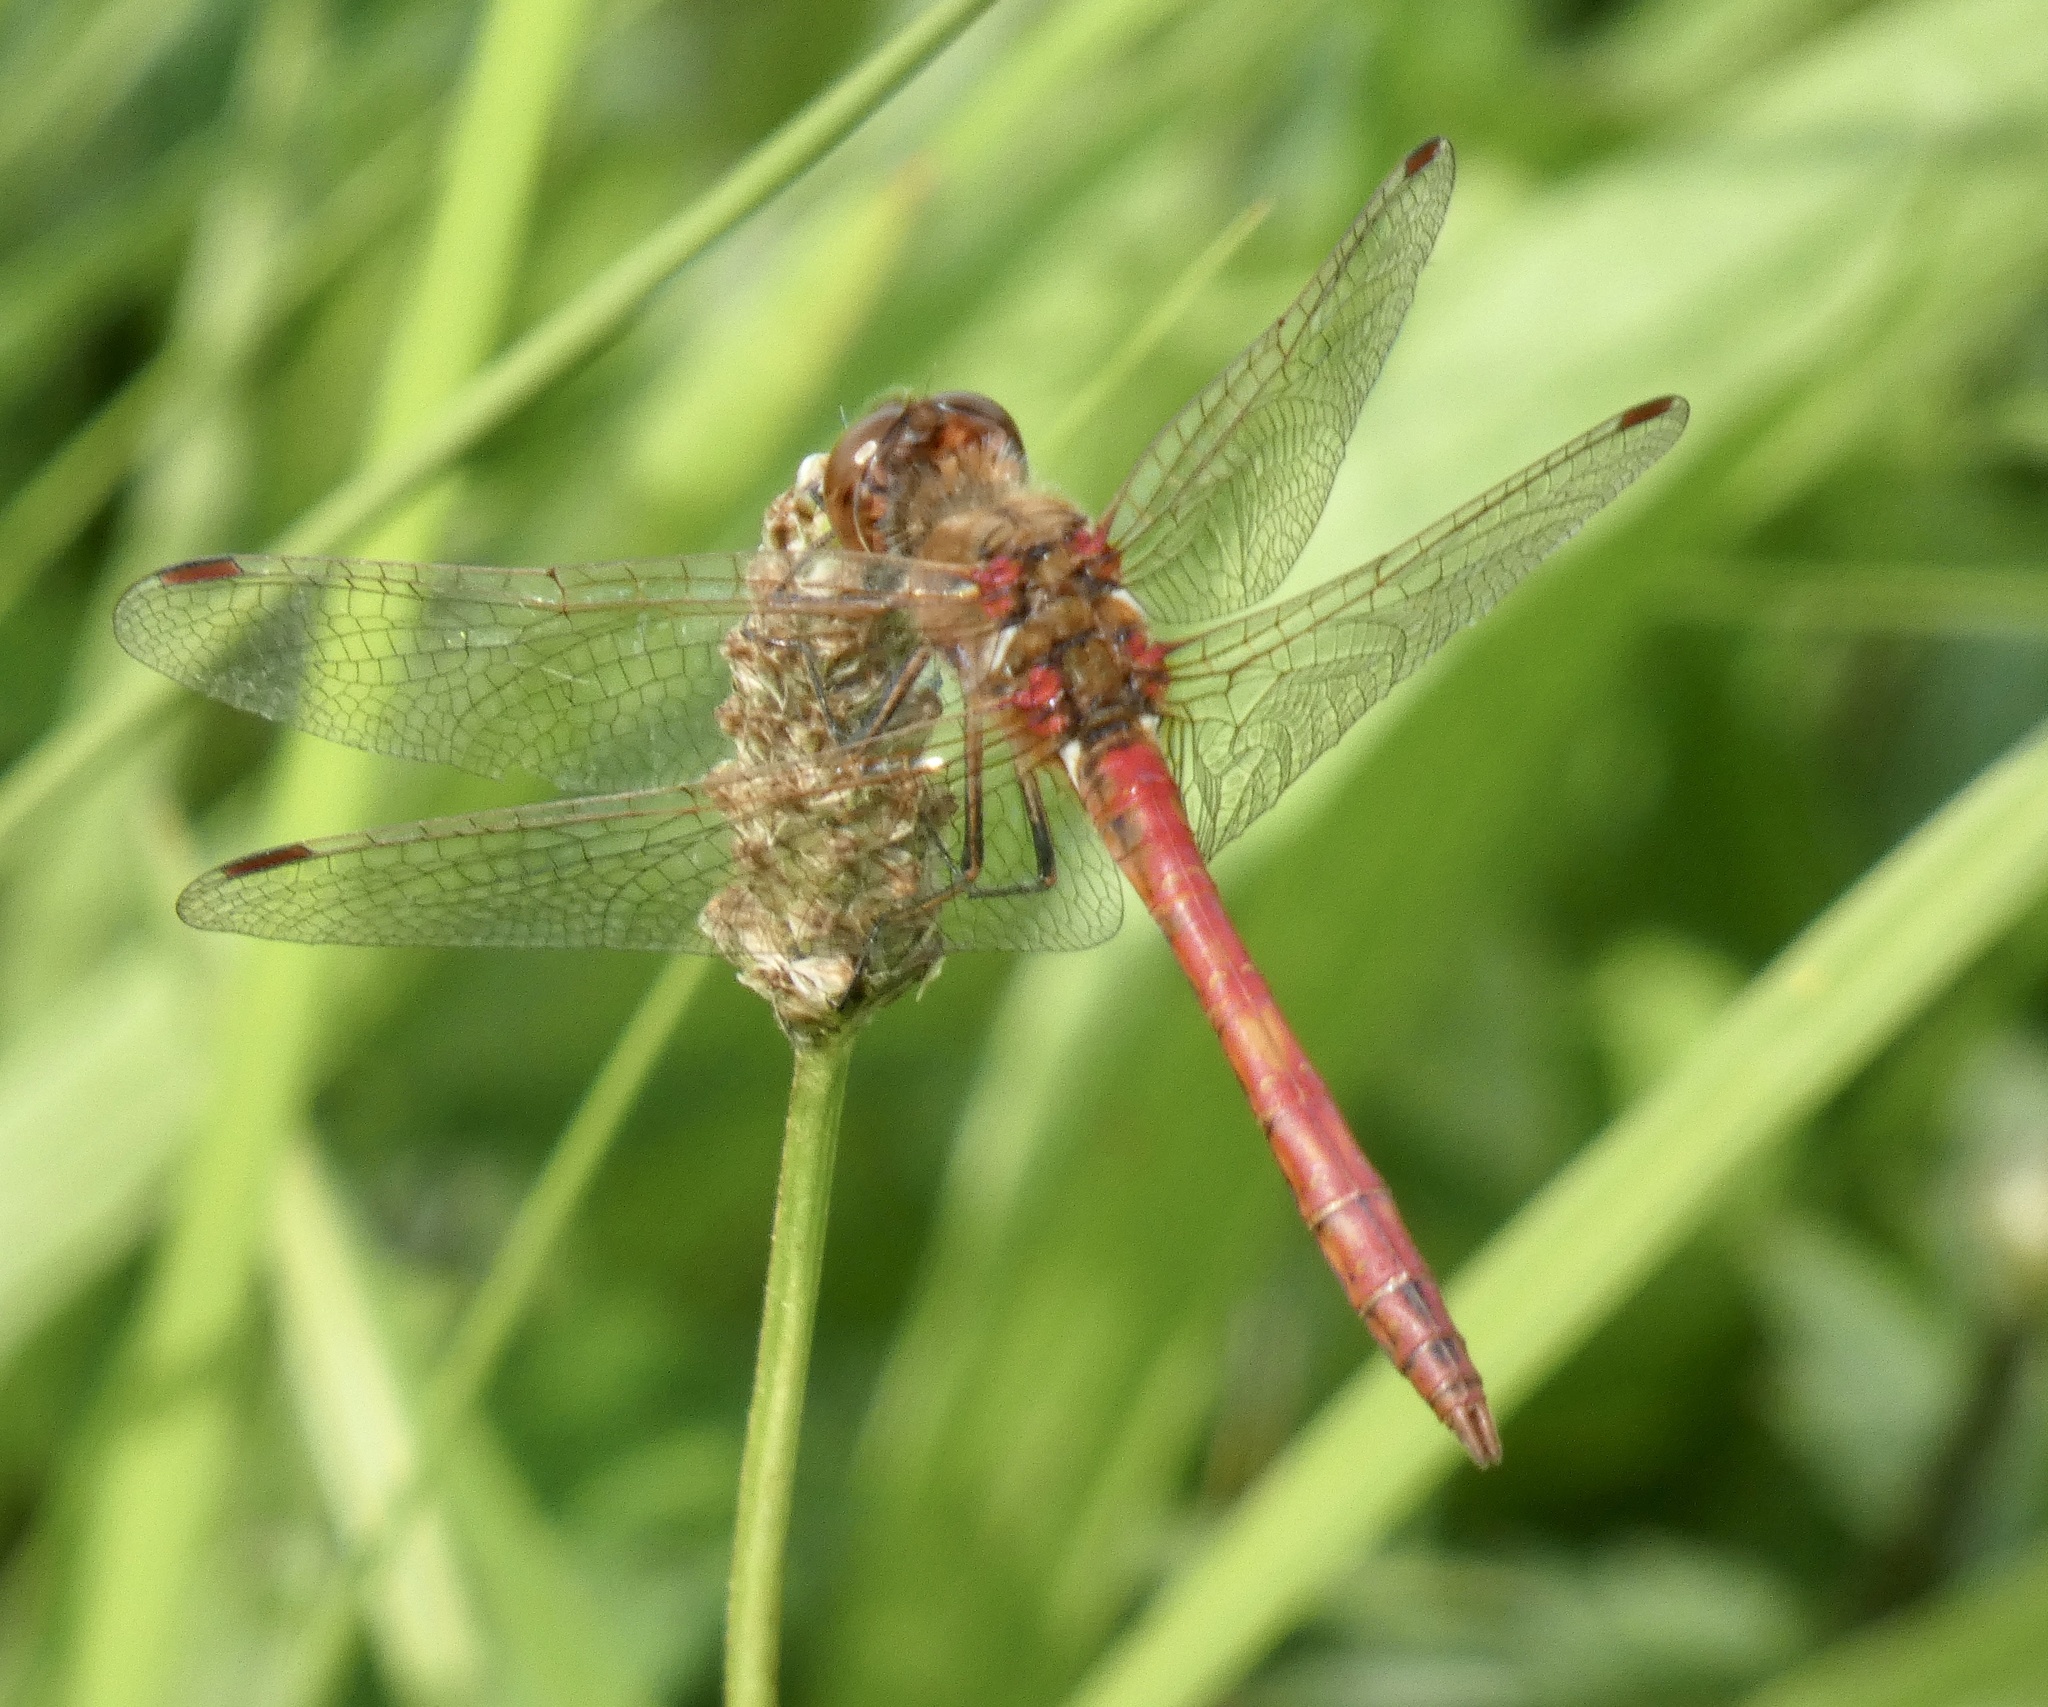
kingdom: Animalia
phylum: Arthropoda
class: Insecta
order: Odonata
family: Libellulidae
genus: Sympetrum
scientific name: Sympetrum vulgatum
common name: Vagrant darter
